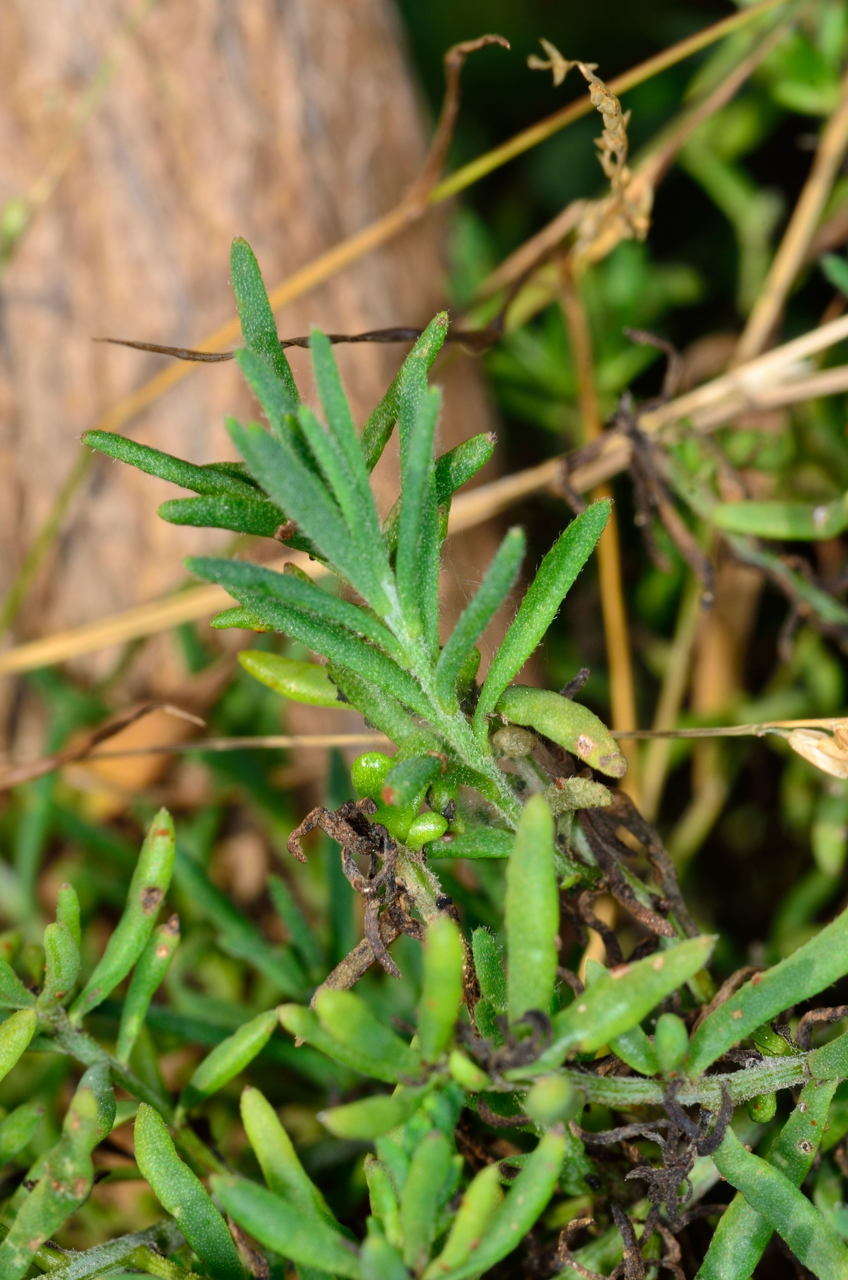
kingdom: Plantae
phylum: Tracheophyta
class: Magnoliopsida
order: Caryophyllales
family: Amaranthaceae
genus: Enchylaena
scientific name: Enchylaena tomentosa
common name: Ruby saltbush
